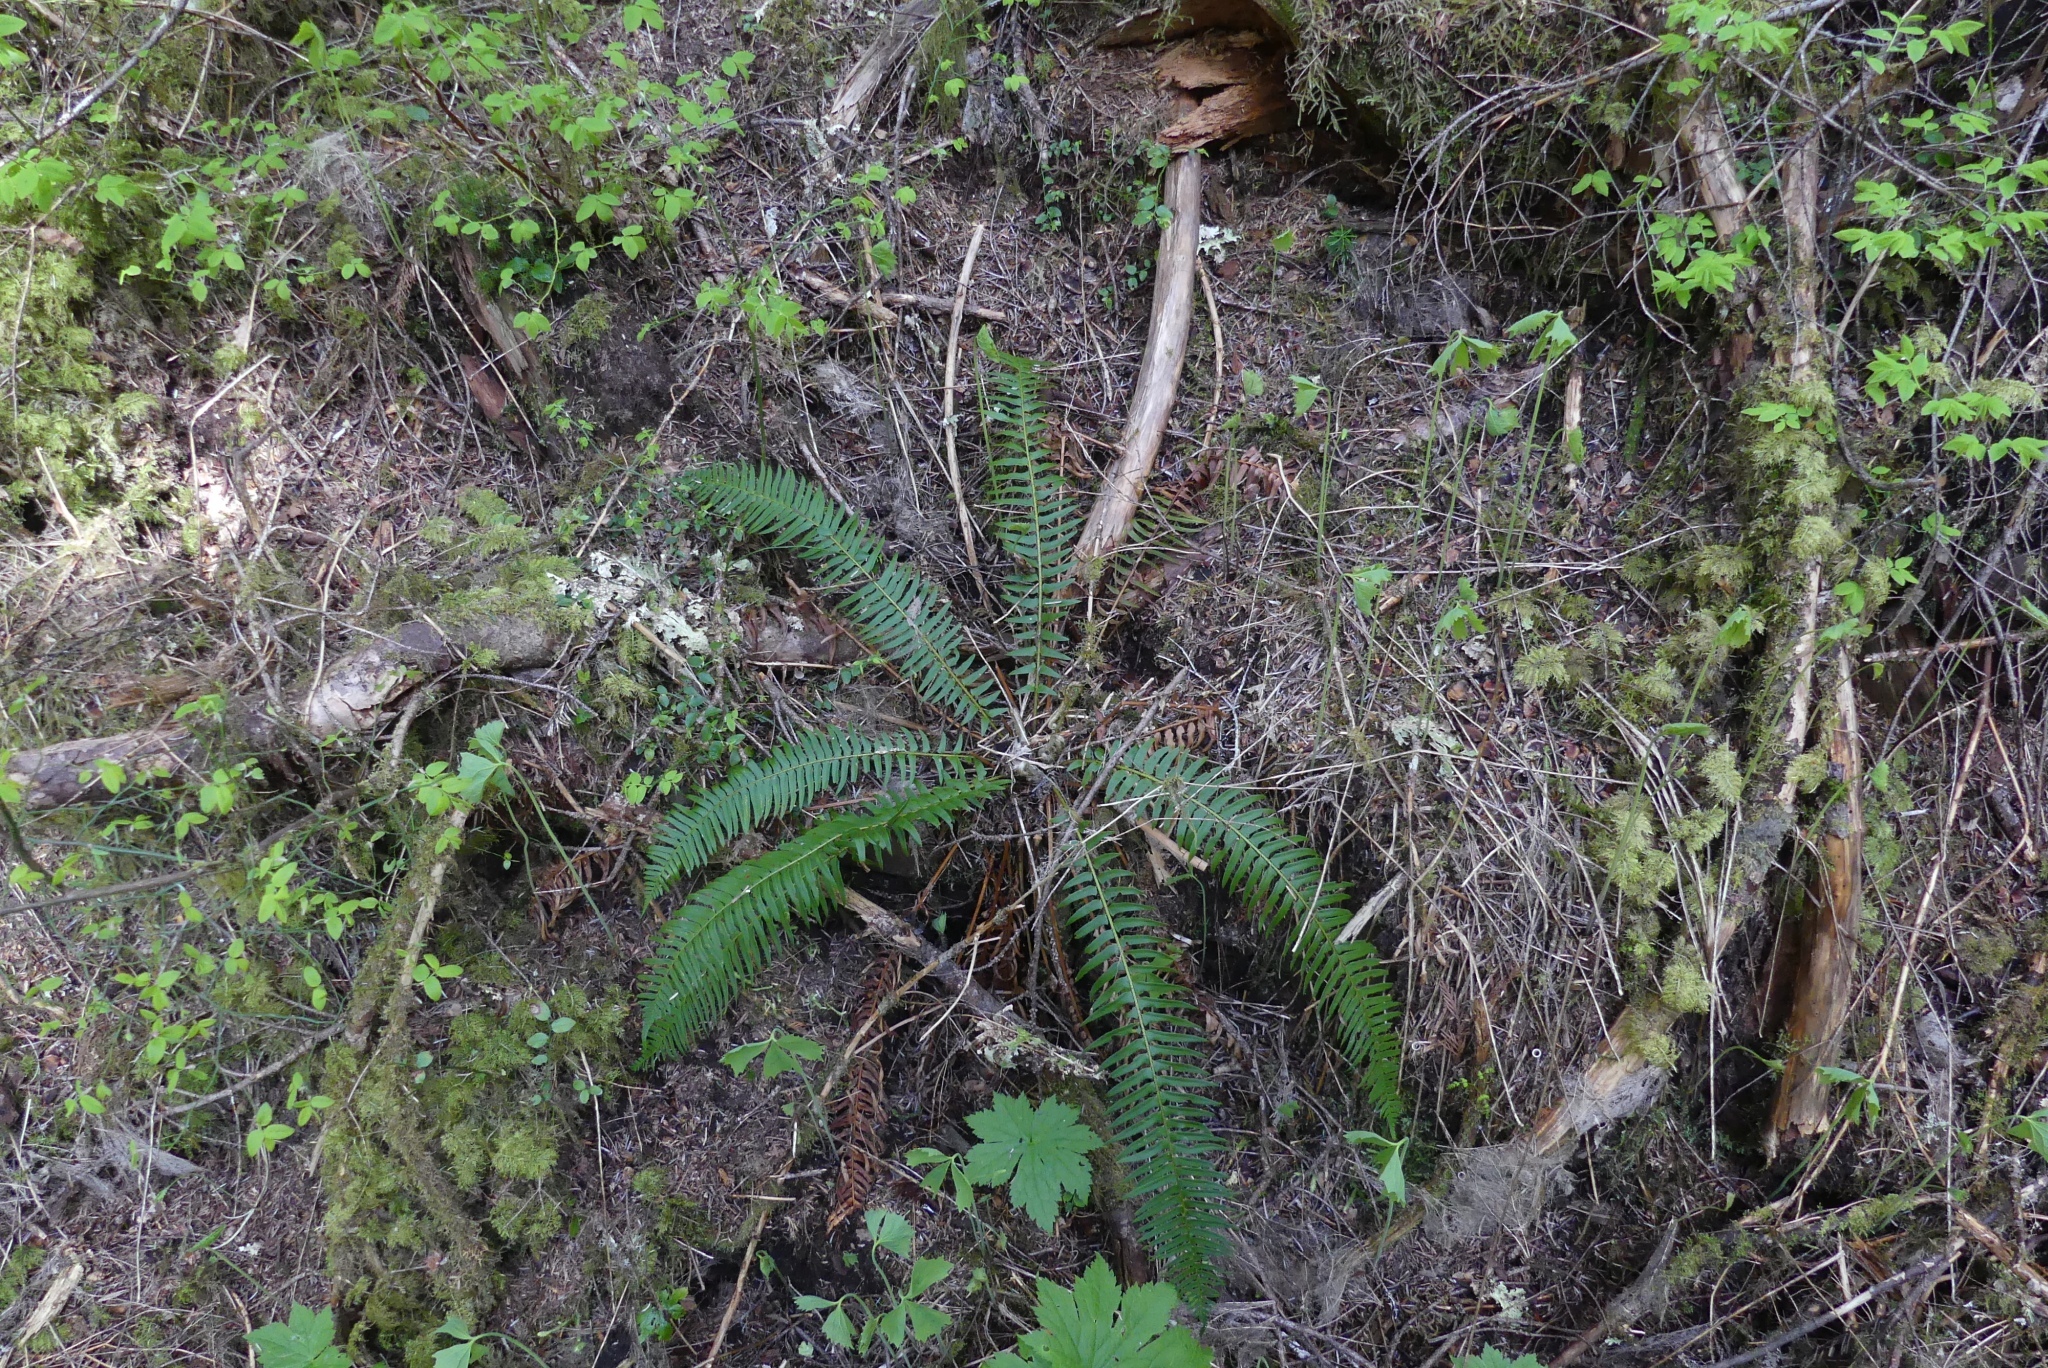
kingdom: Plantae
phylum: Tracheophyta
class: Polypodiopsida
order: Polypodiales
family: Dryopteridaceae
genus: Polystichum
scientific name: Polystichum munitum
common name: Western sword-fern
